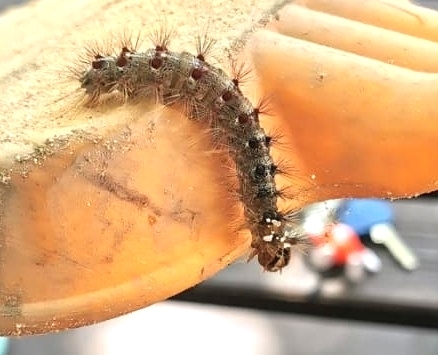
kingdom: Animalia
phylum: Arthropoda
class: Insecta
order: Lepidoptera
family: Erebidae
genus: Lymantria
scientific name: Lymantria dispar
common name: Gypsy moth
